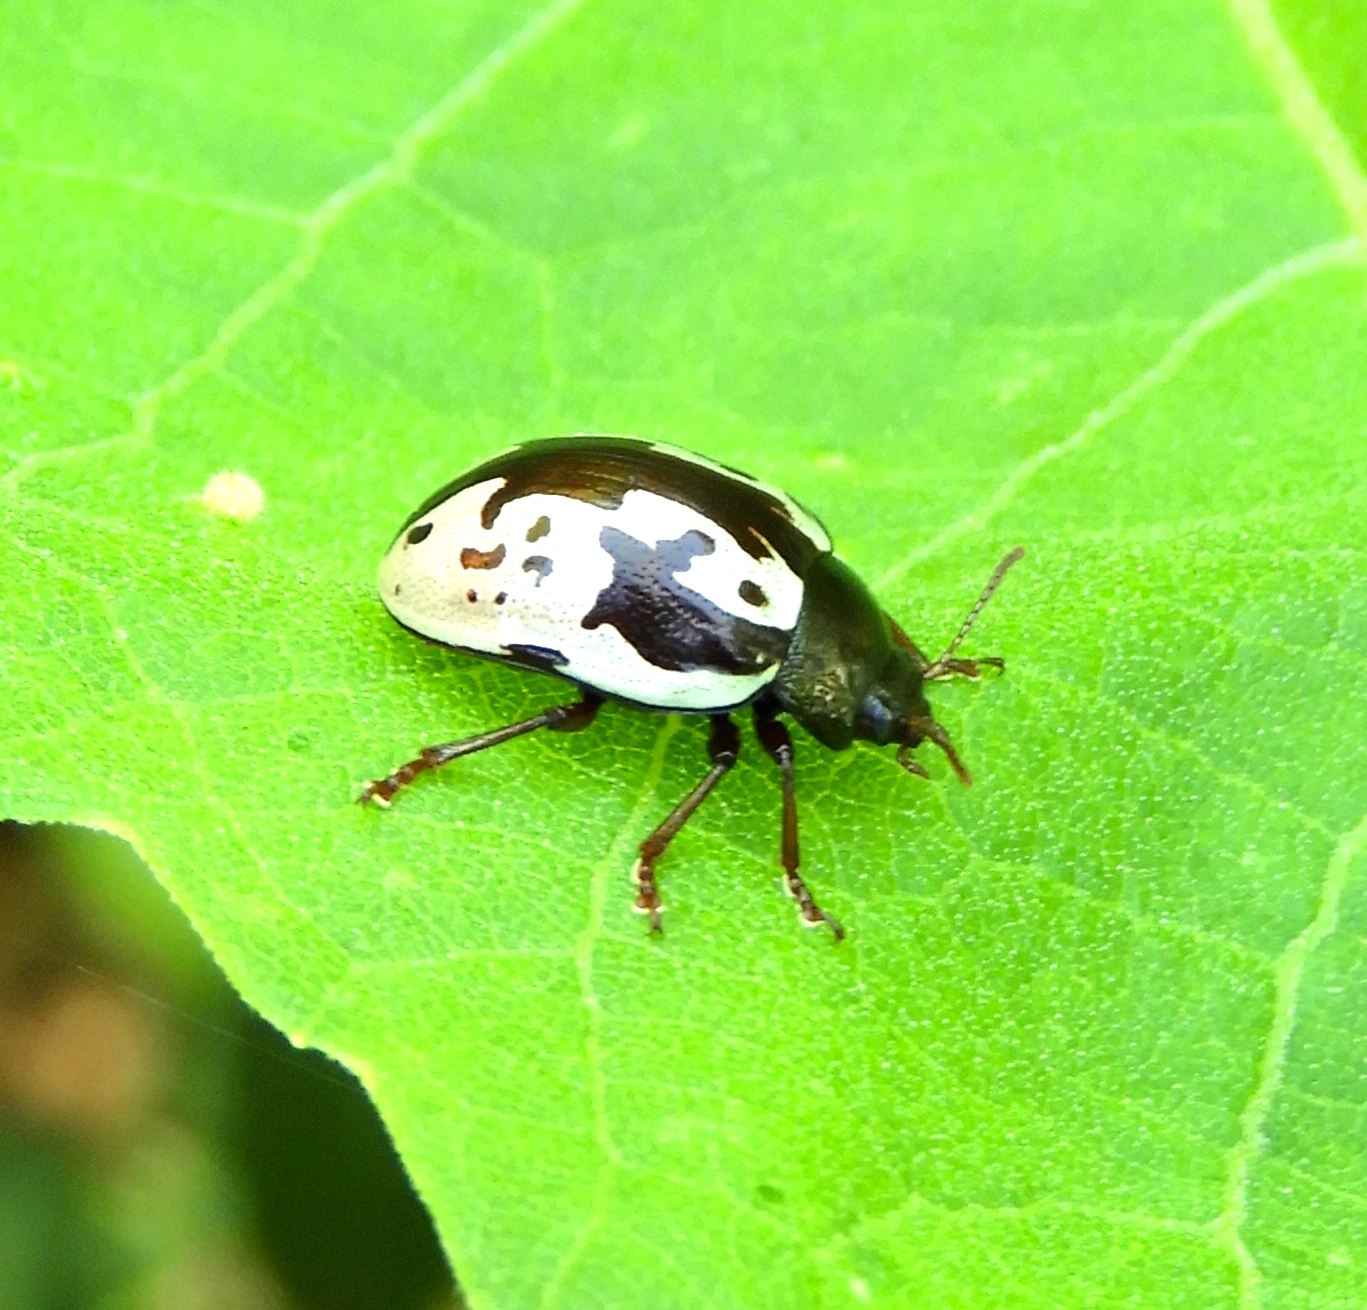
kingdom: Animalia
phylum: Arthropoda
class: Insecta
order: Coleoptera
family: Chrysomelidae
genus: Calligrapha
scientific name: Calligrapha intermedia
